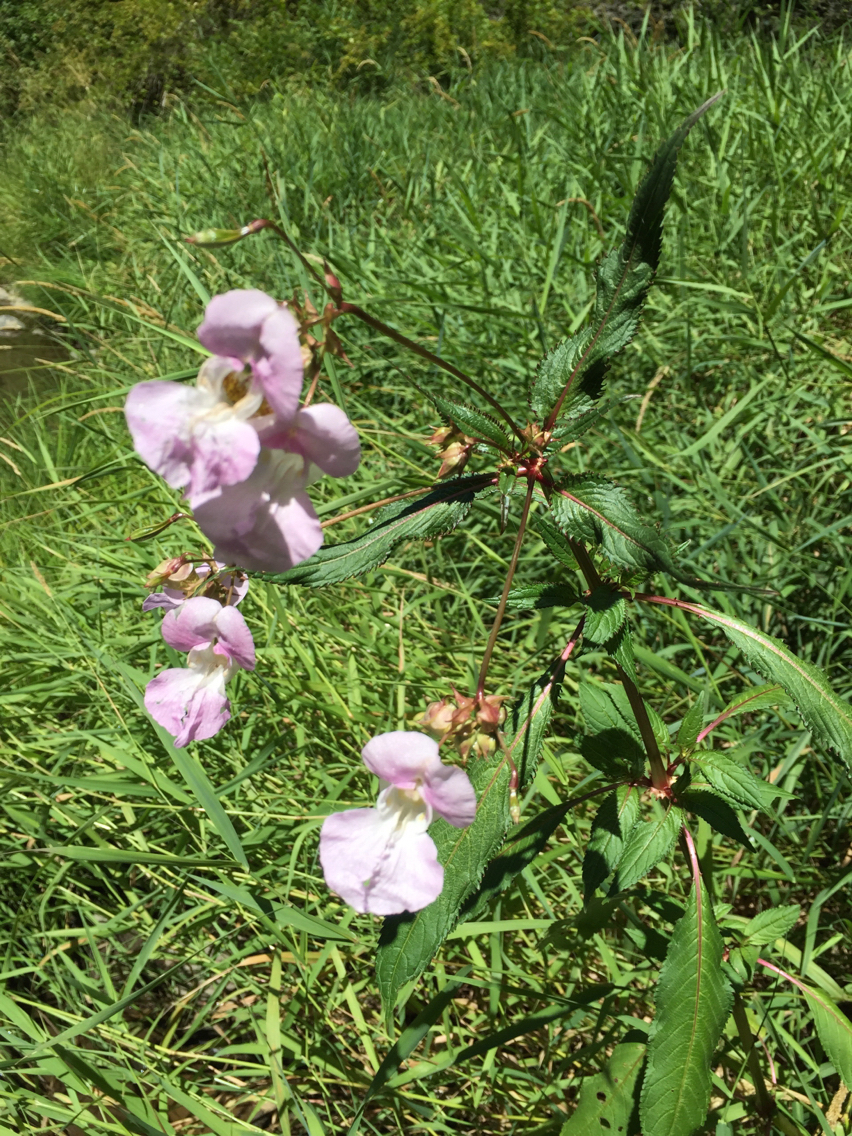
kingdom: Plantae
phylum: Tracheophyta
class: Magnoliopsida
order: Ericales
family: Balsaminaceae
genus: Impatiens
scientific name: Impatiens glandulifera
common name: Himalayan balsam
